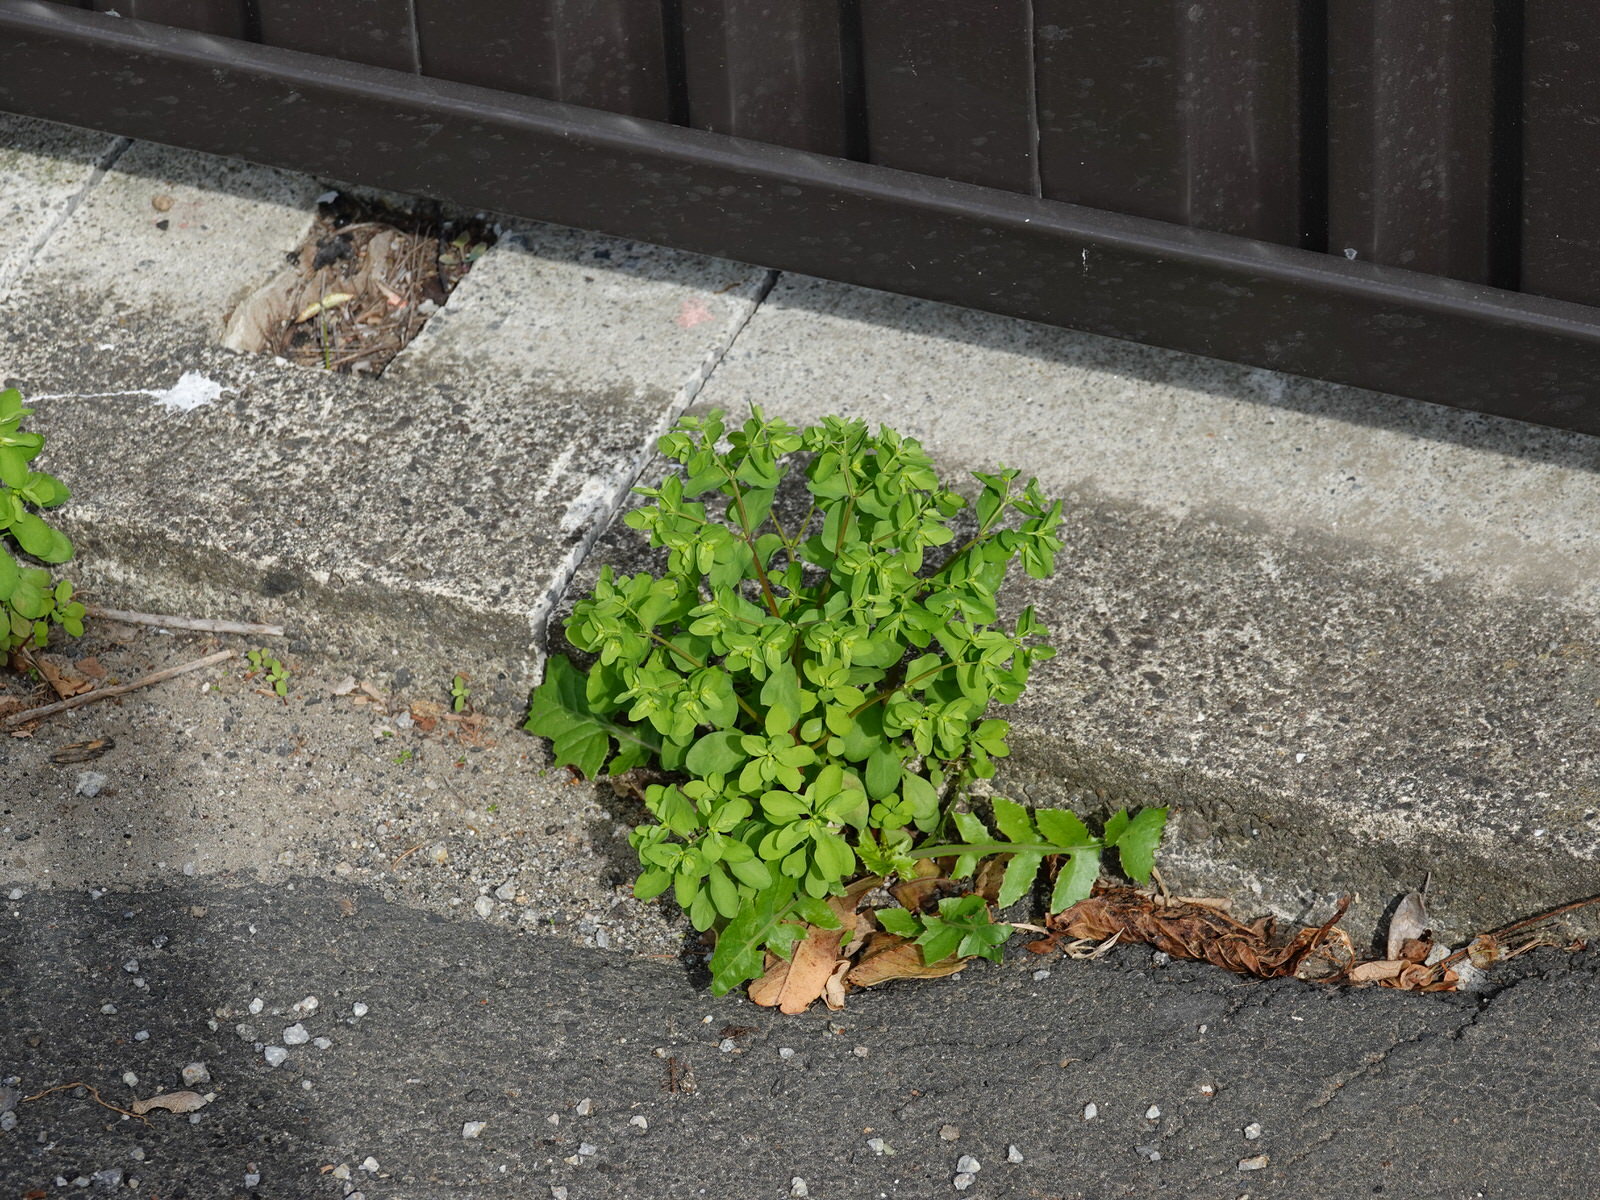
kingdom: Plantae
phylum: Tracheophyta
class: Magnoliopsida
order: Malpighiales
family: Euphorbiaceae
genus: Euphorbia
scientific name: Euphorbia peplus
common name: Petty spurge
